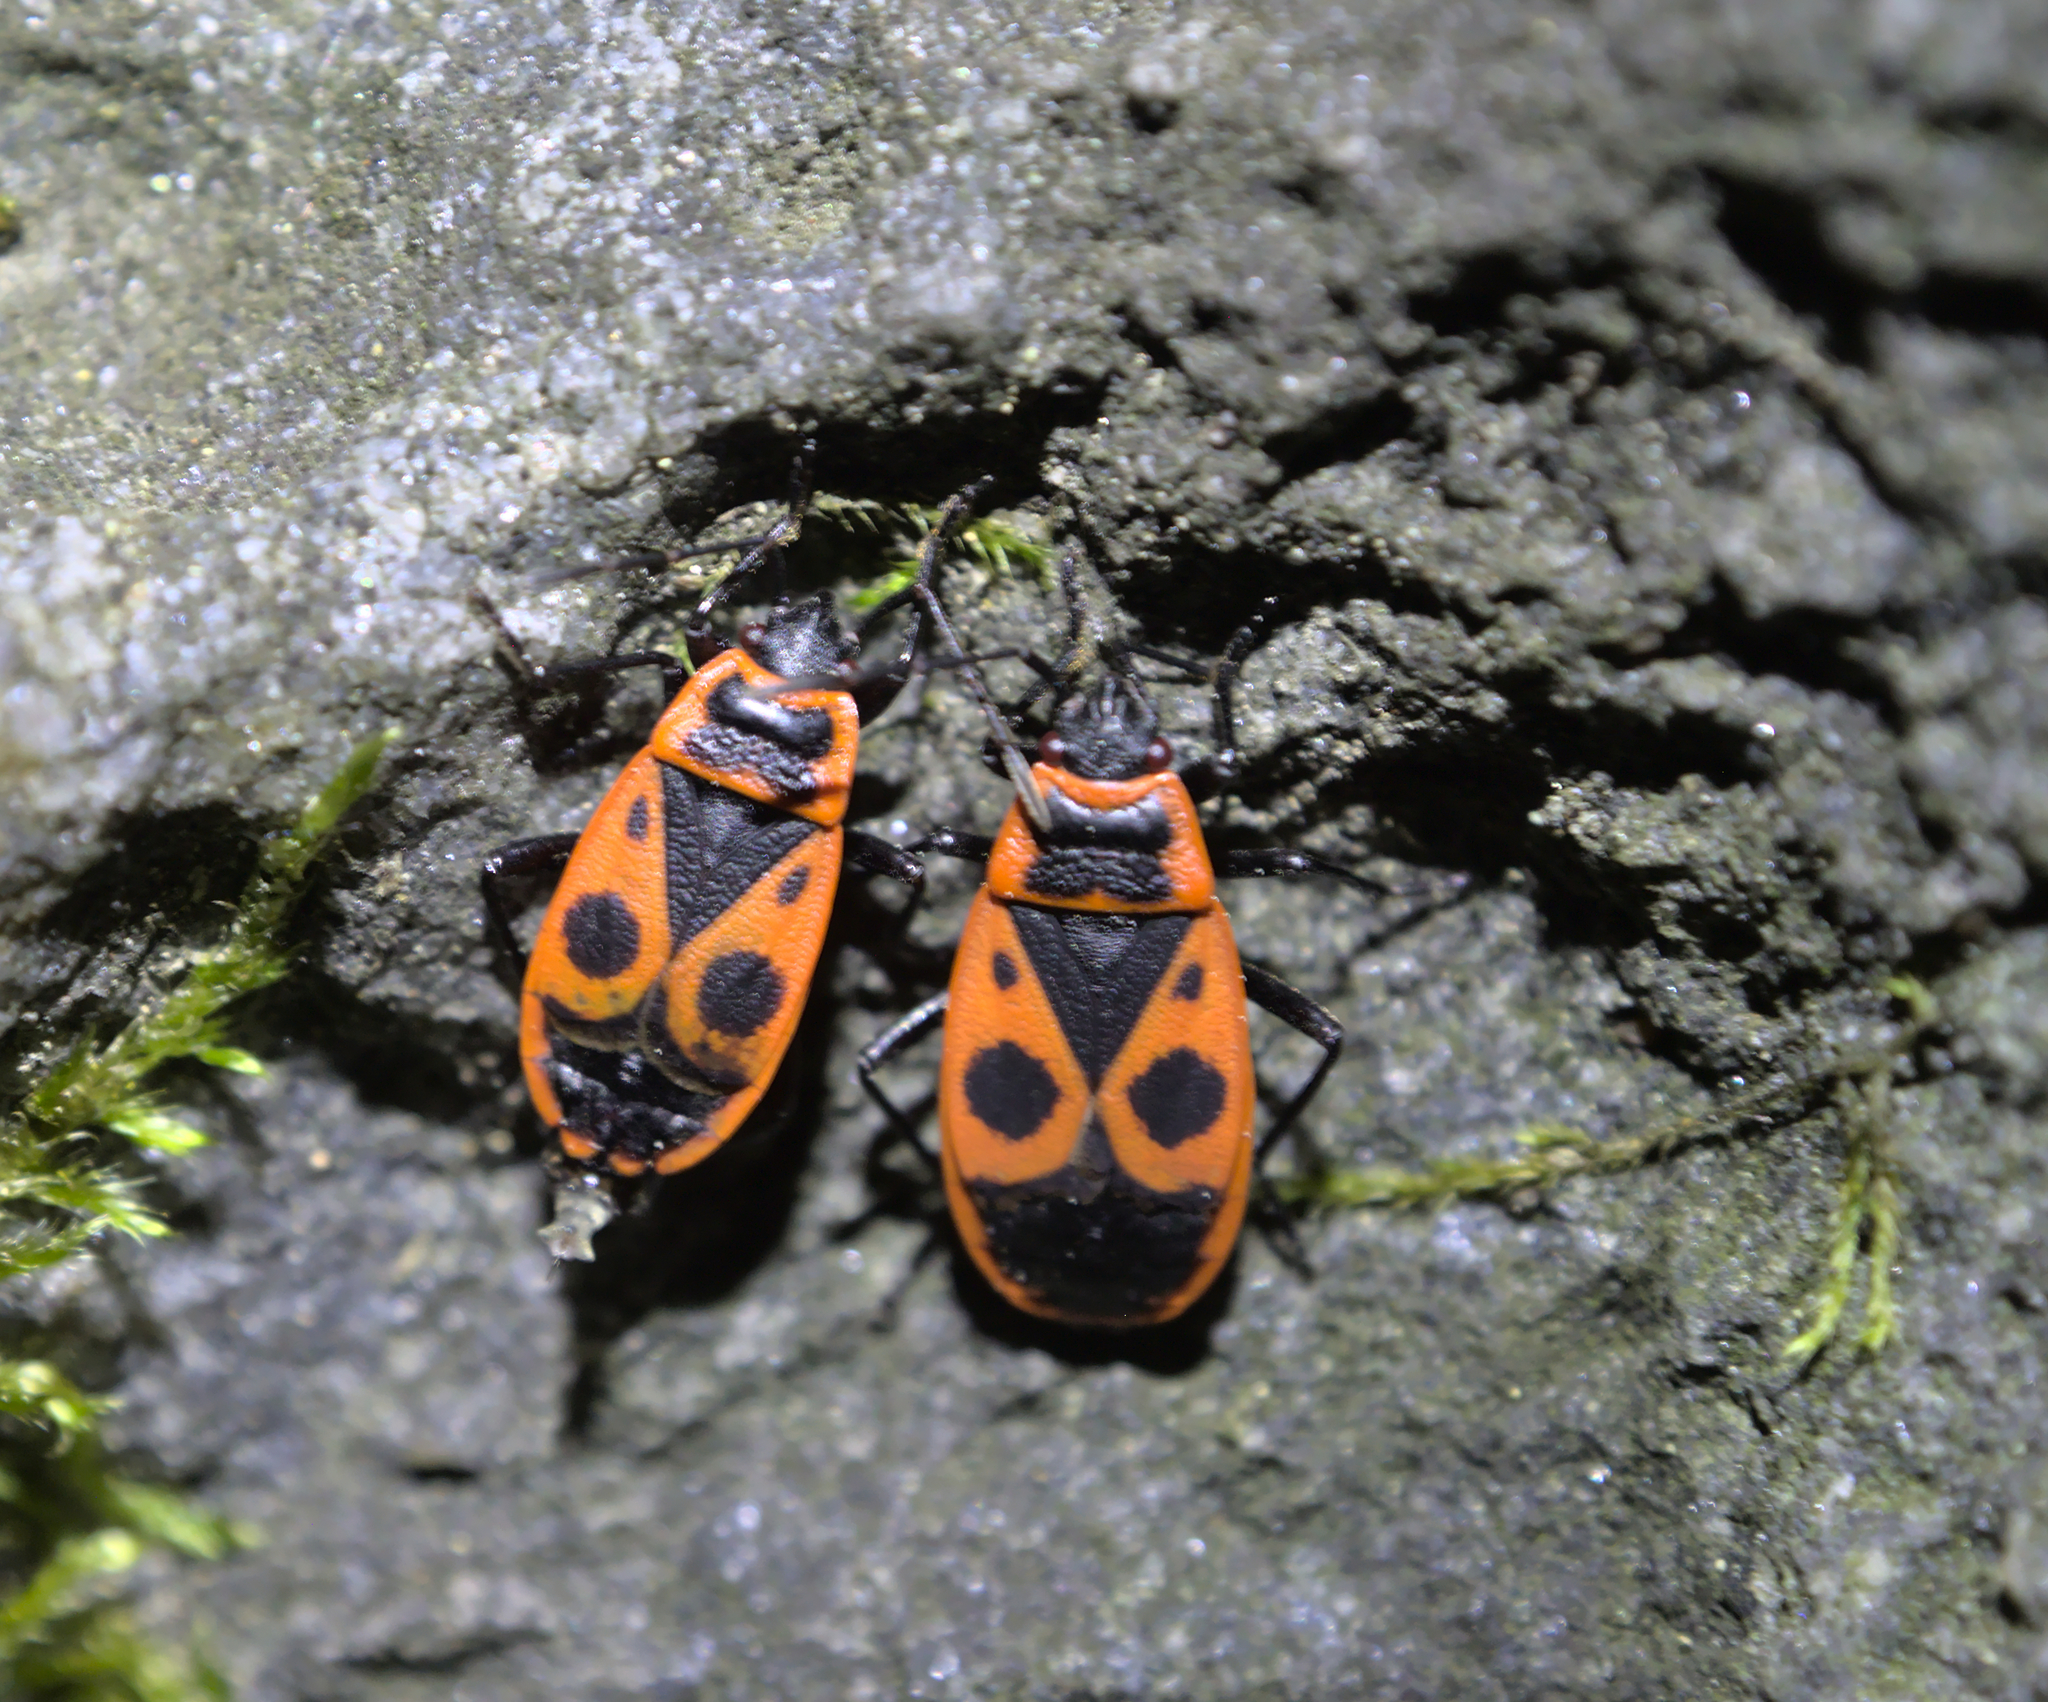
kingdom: Animalia
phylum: Arthropoda
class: Insecta
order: Hemiptera
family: Pyrrhocoridae
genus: Pyrrhocoris
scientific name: Pyrrhocoris apterus
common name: Firebug
